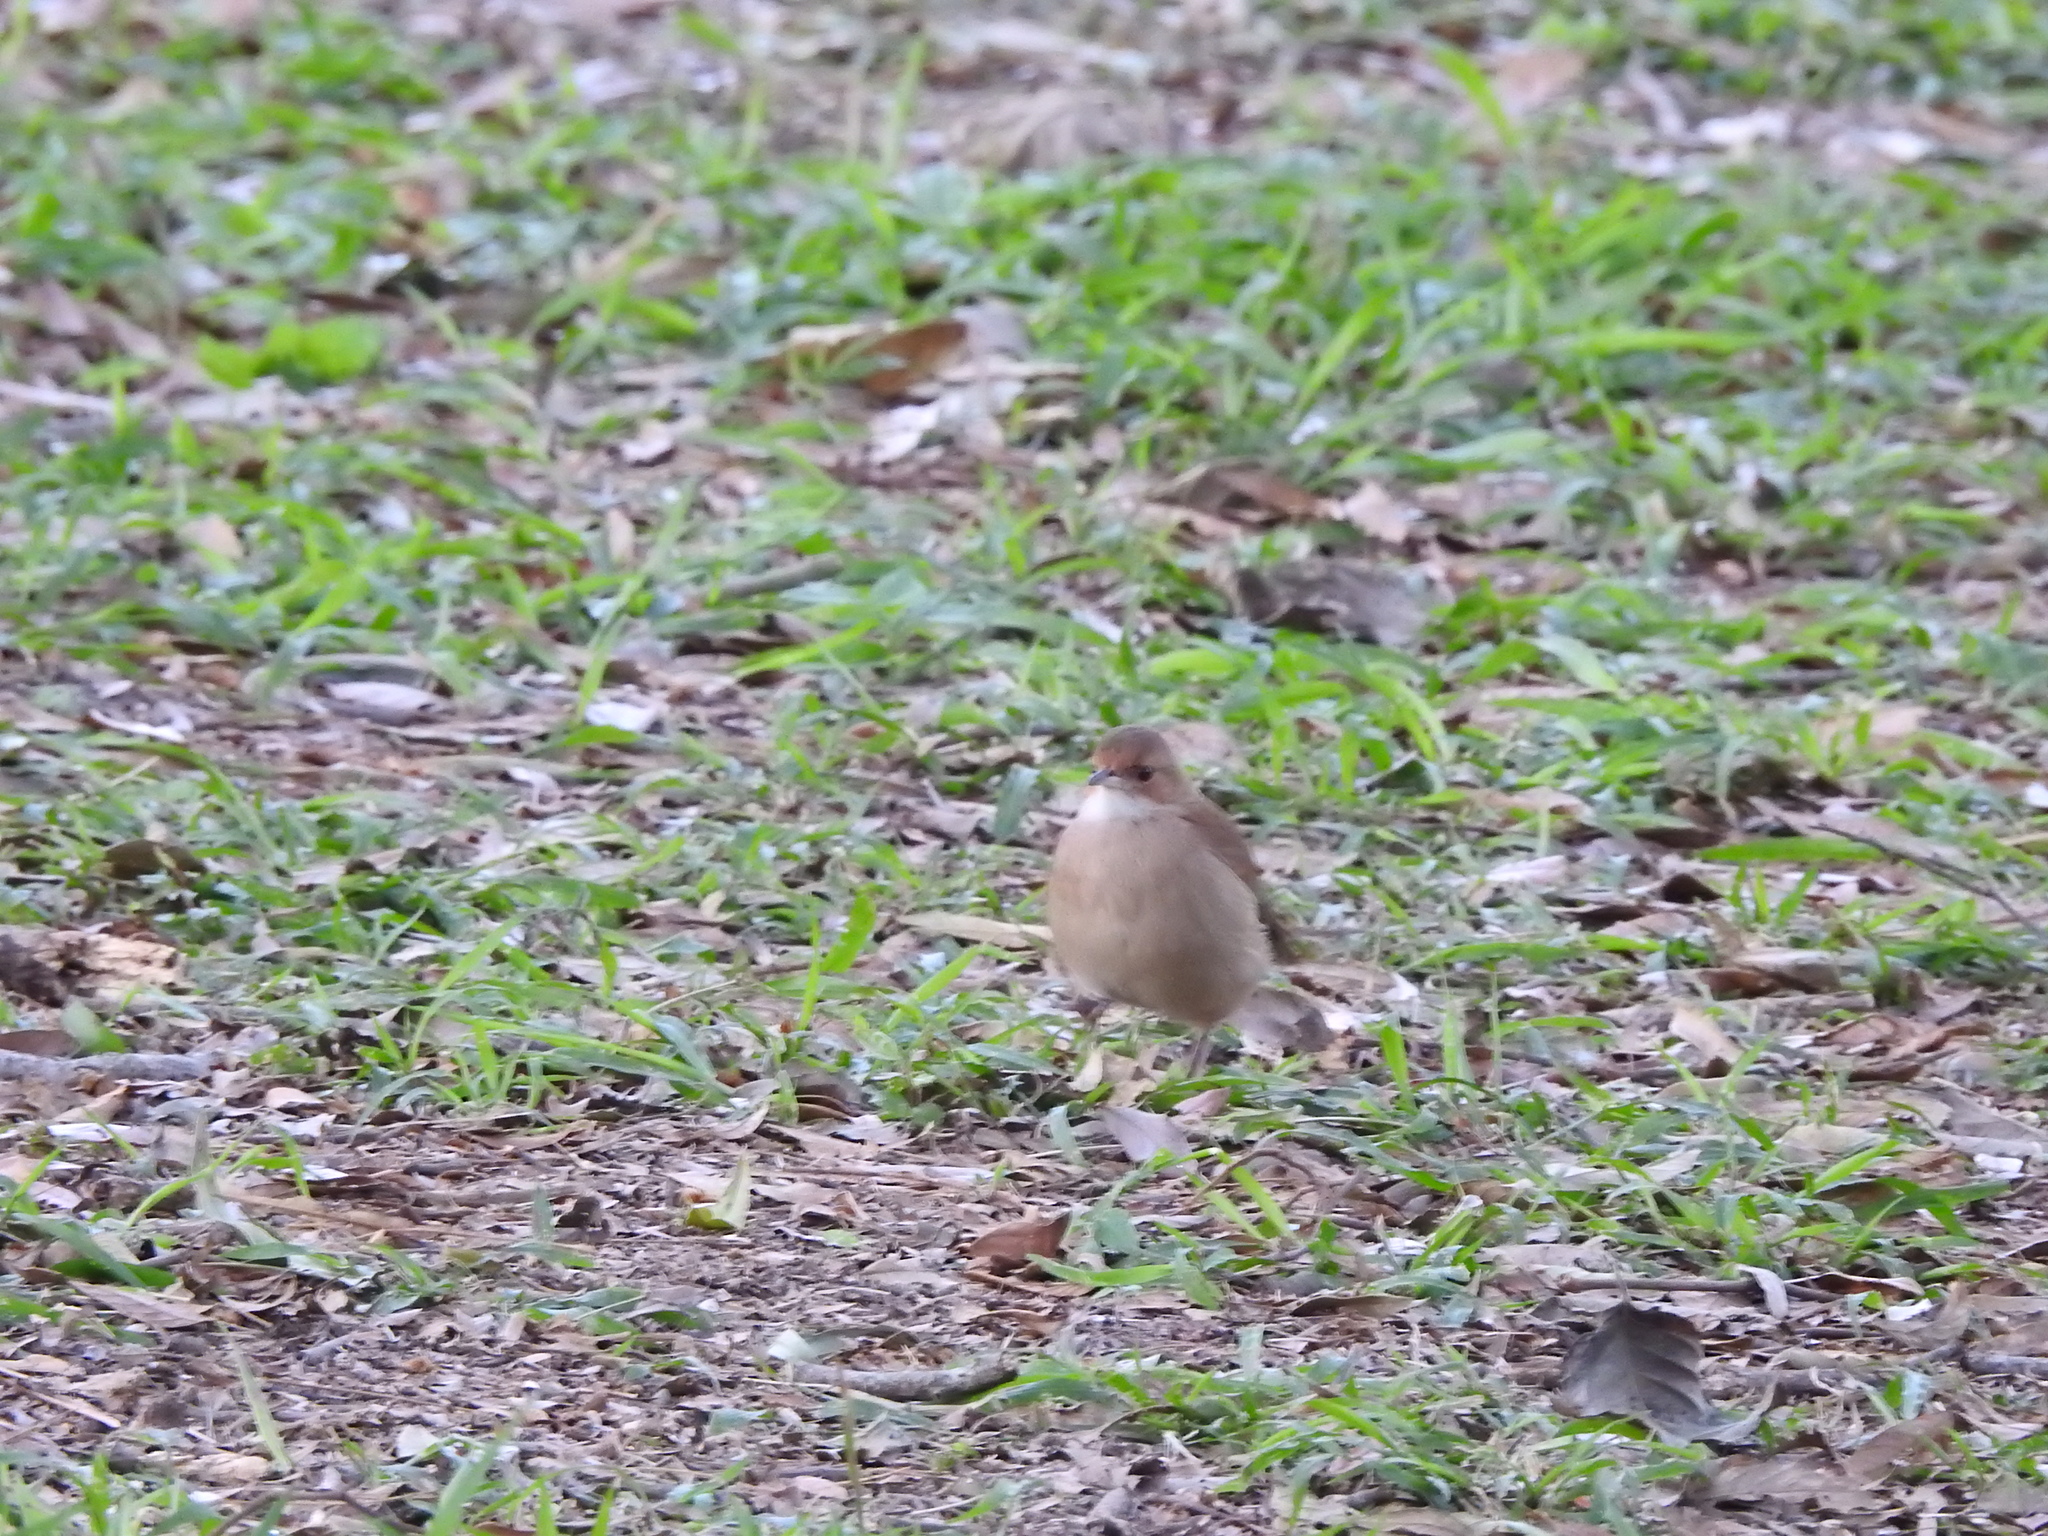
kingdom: Animalia
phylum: Chordata
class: Aves
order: Passeriformes
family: Furnariidae
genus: Furnarius
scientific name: Furnarius rufus
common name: Rufous hornero
